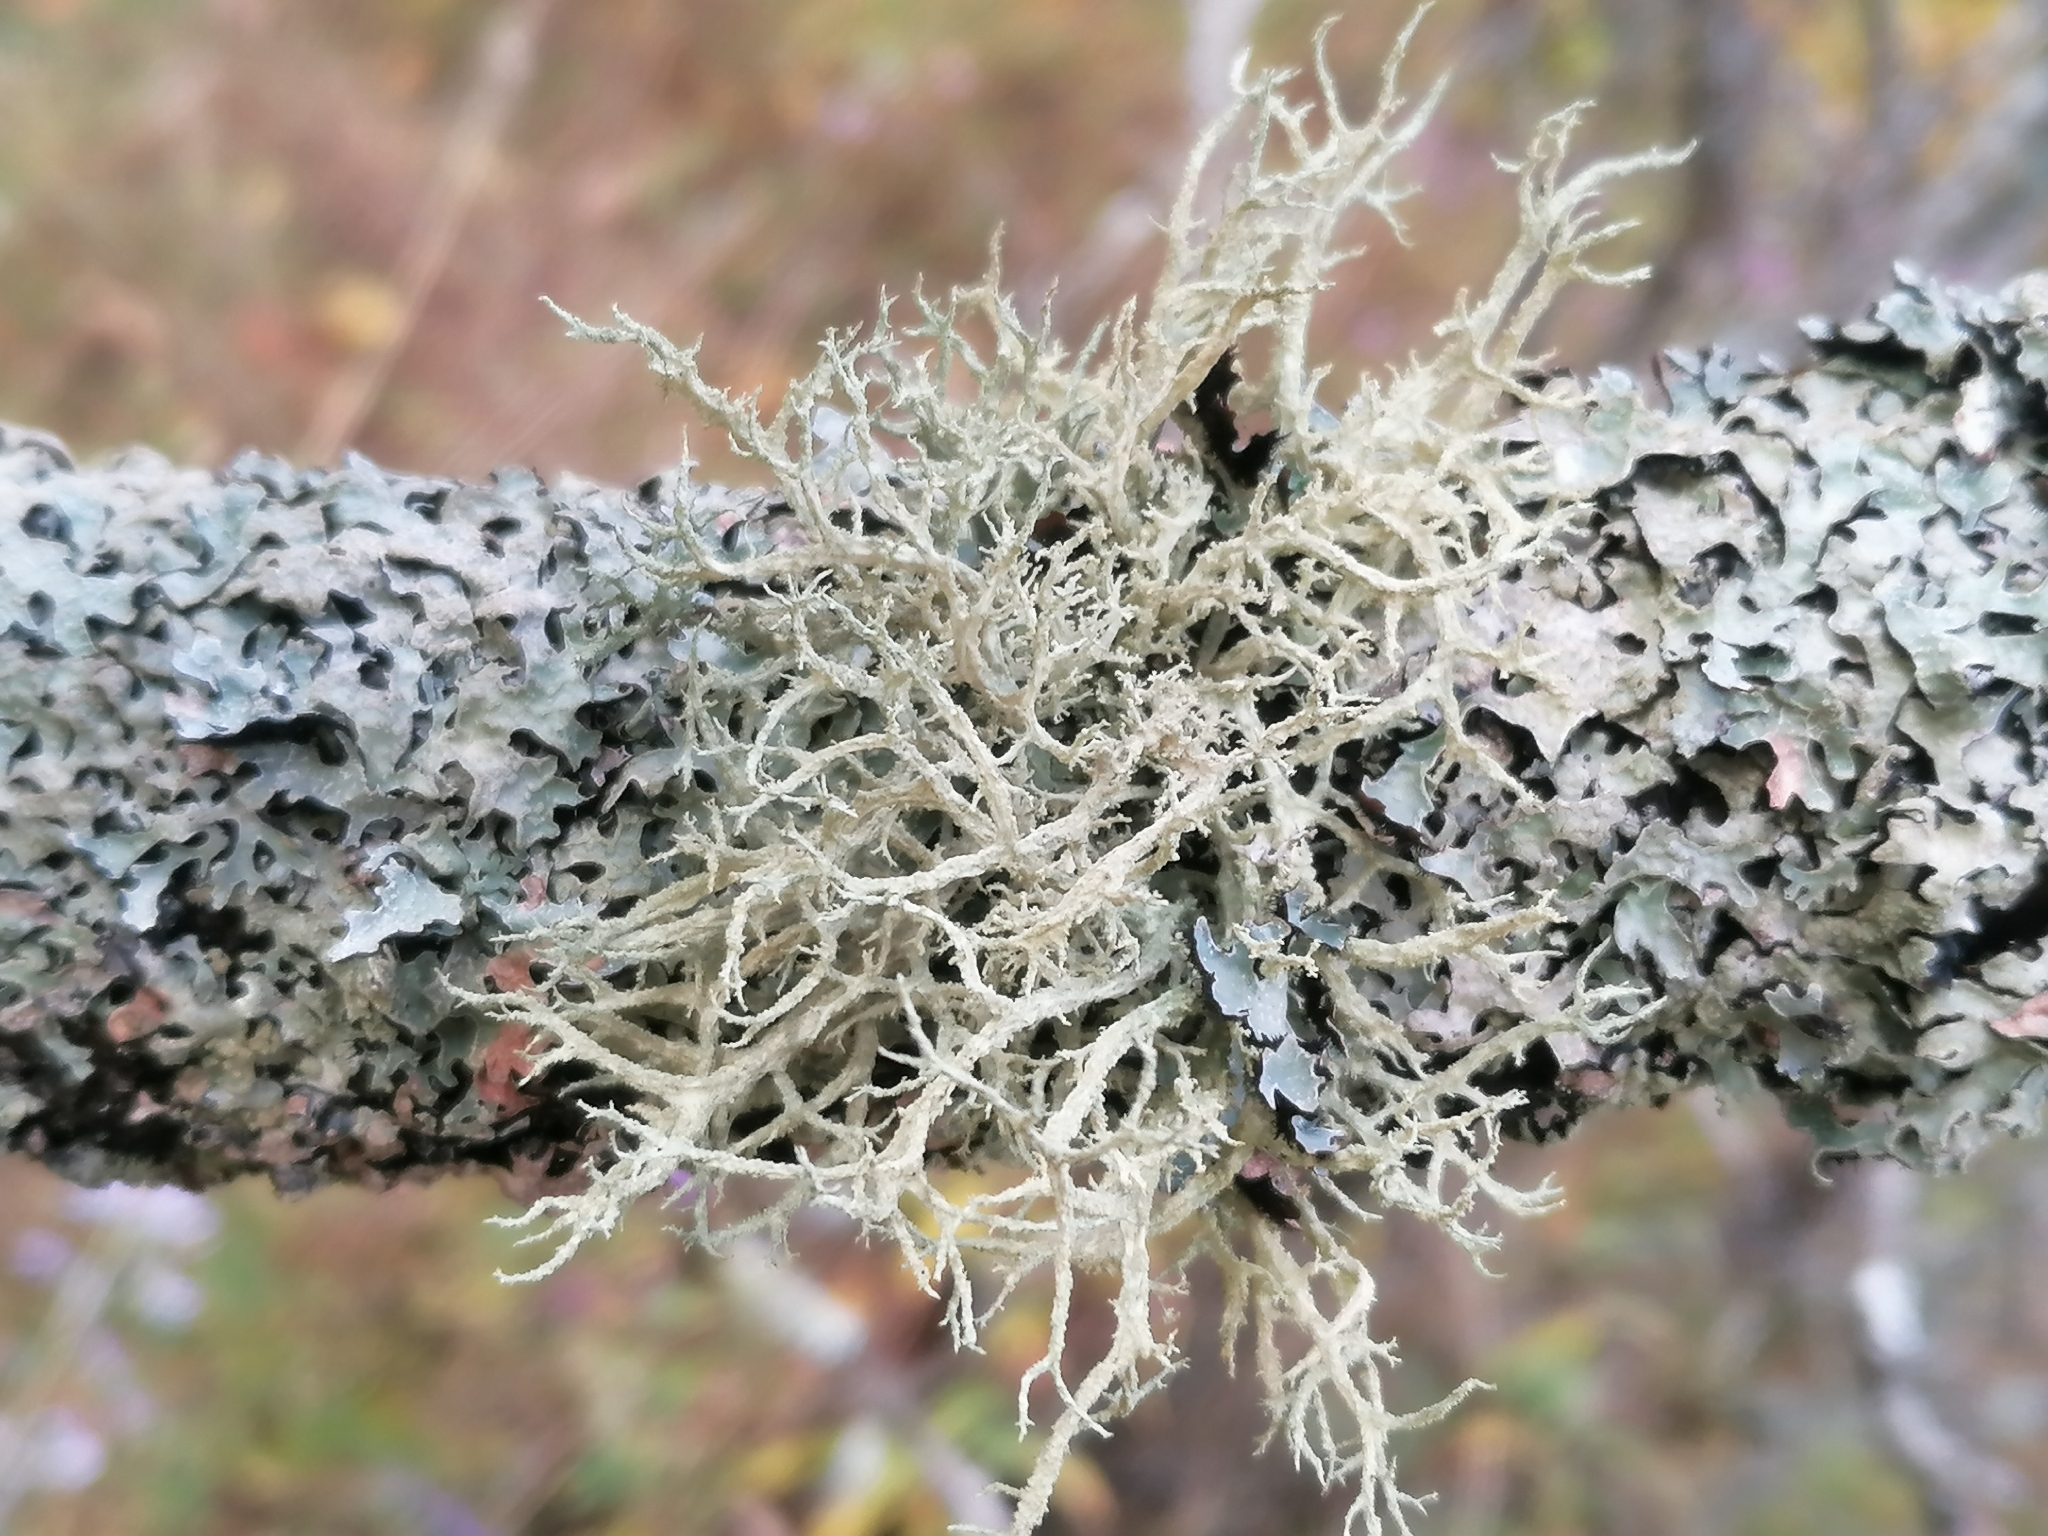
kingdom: Fungi
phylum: Ascomycota
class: Lecanoromycetes
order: Lecanorales
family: Parmeliaceae
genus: Evernia
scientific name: Evernia mesomorpha
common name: Boreal oak moss lichen
